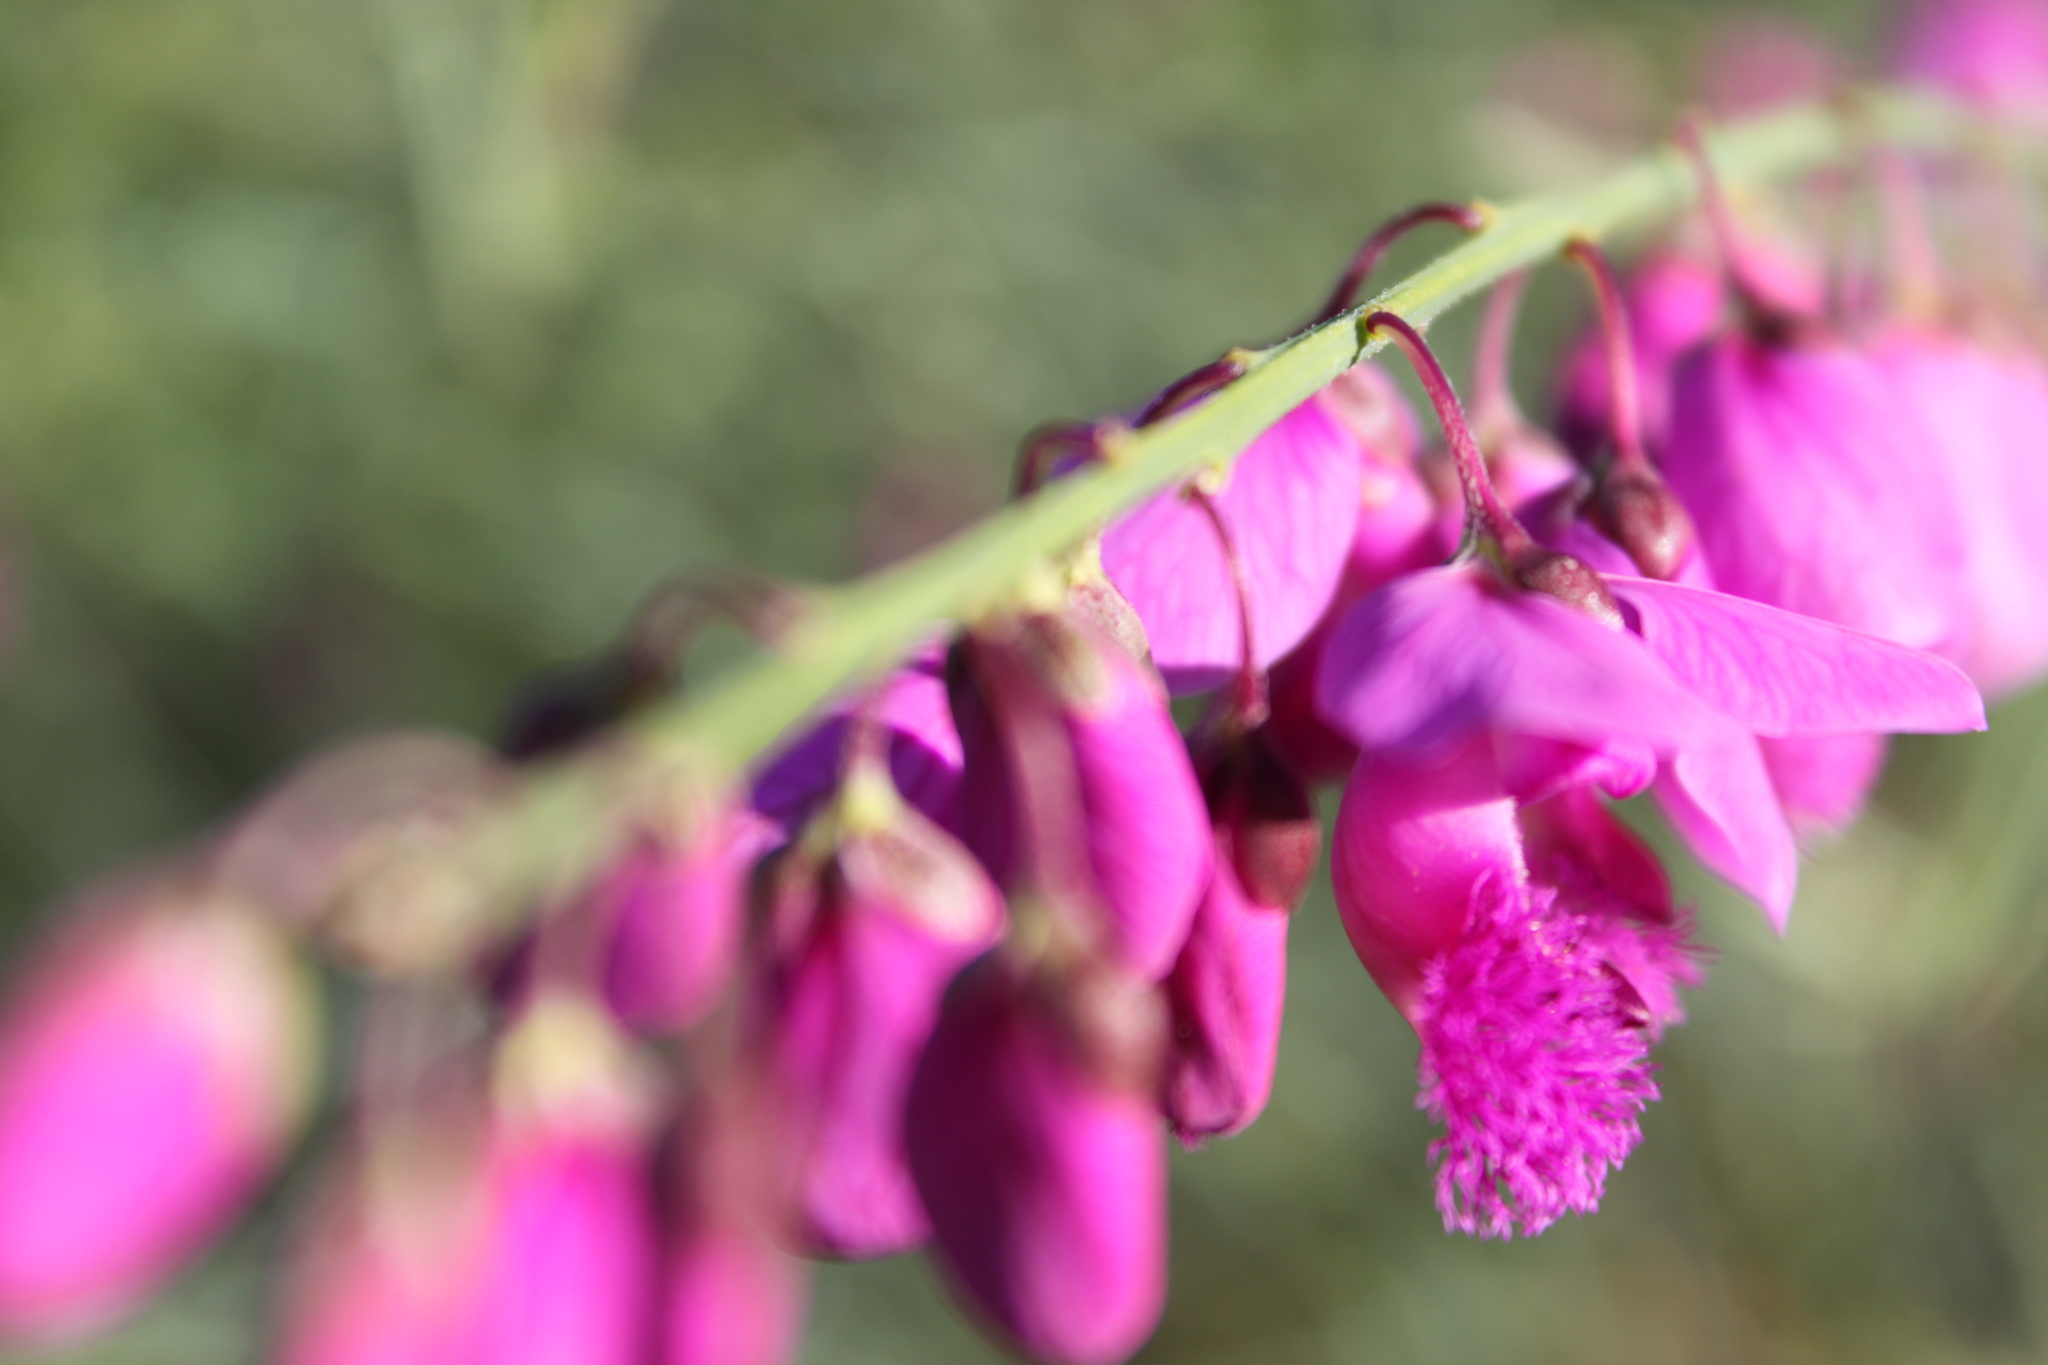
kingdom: Plantae
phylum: Tracheophyta
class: Magnoliopsida
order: Fabales
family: Polygalaceae
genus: Polygala
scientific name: Polygala virgata
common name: Milkwort
